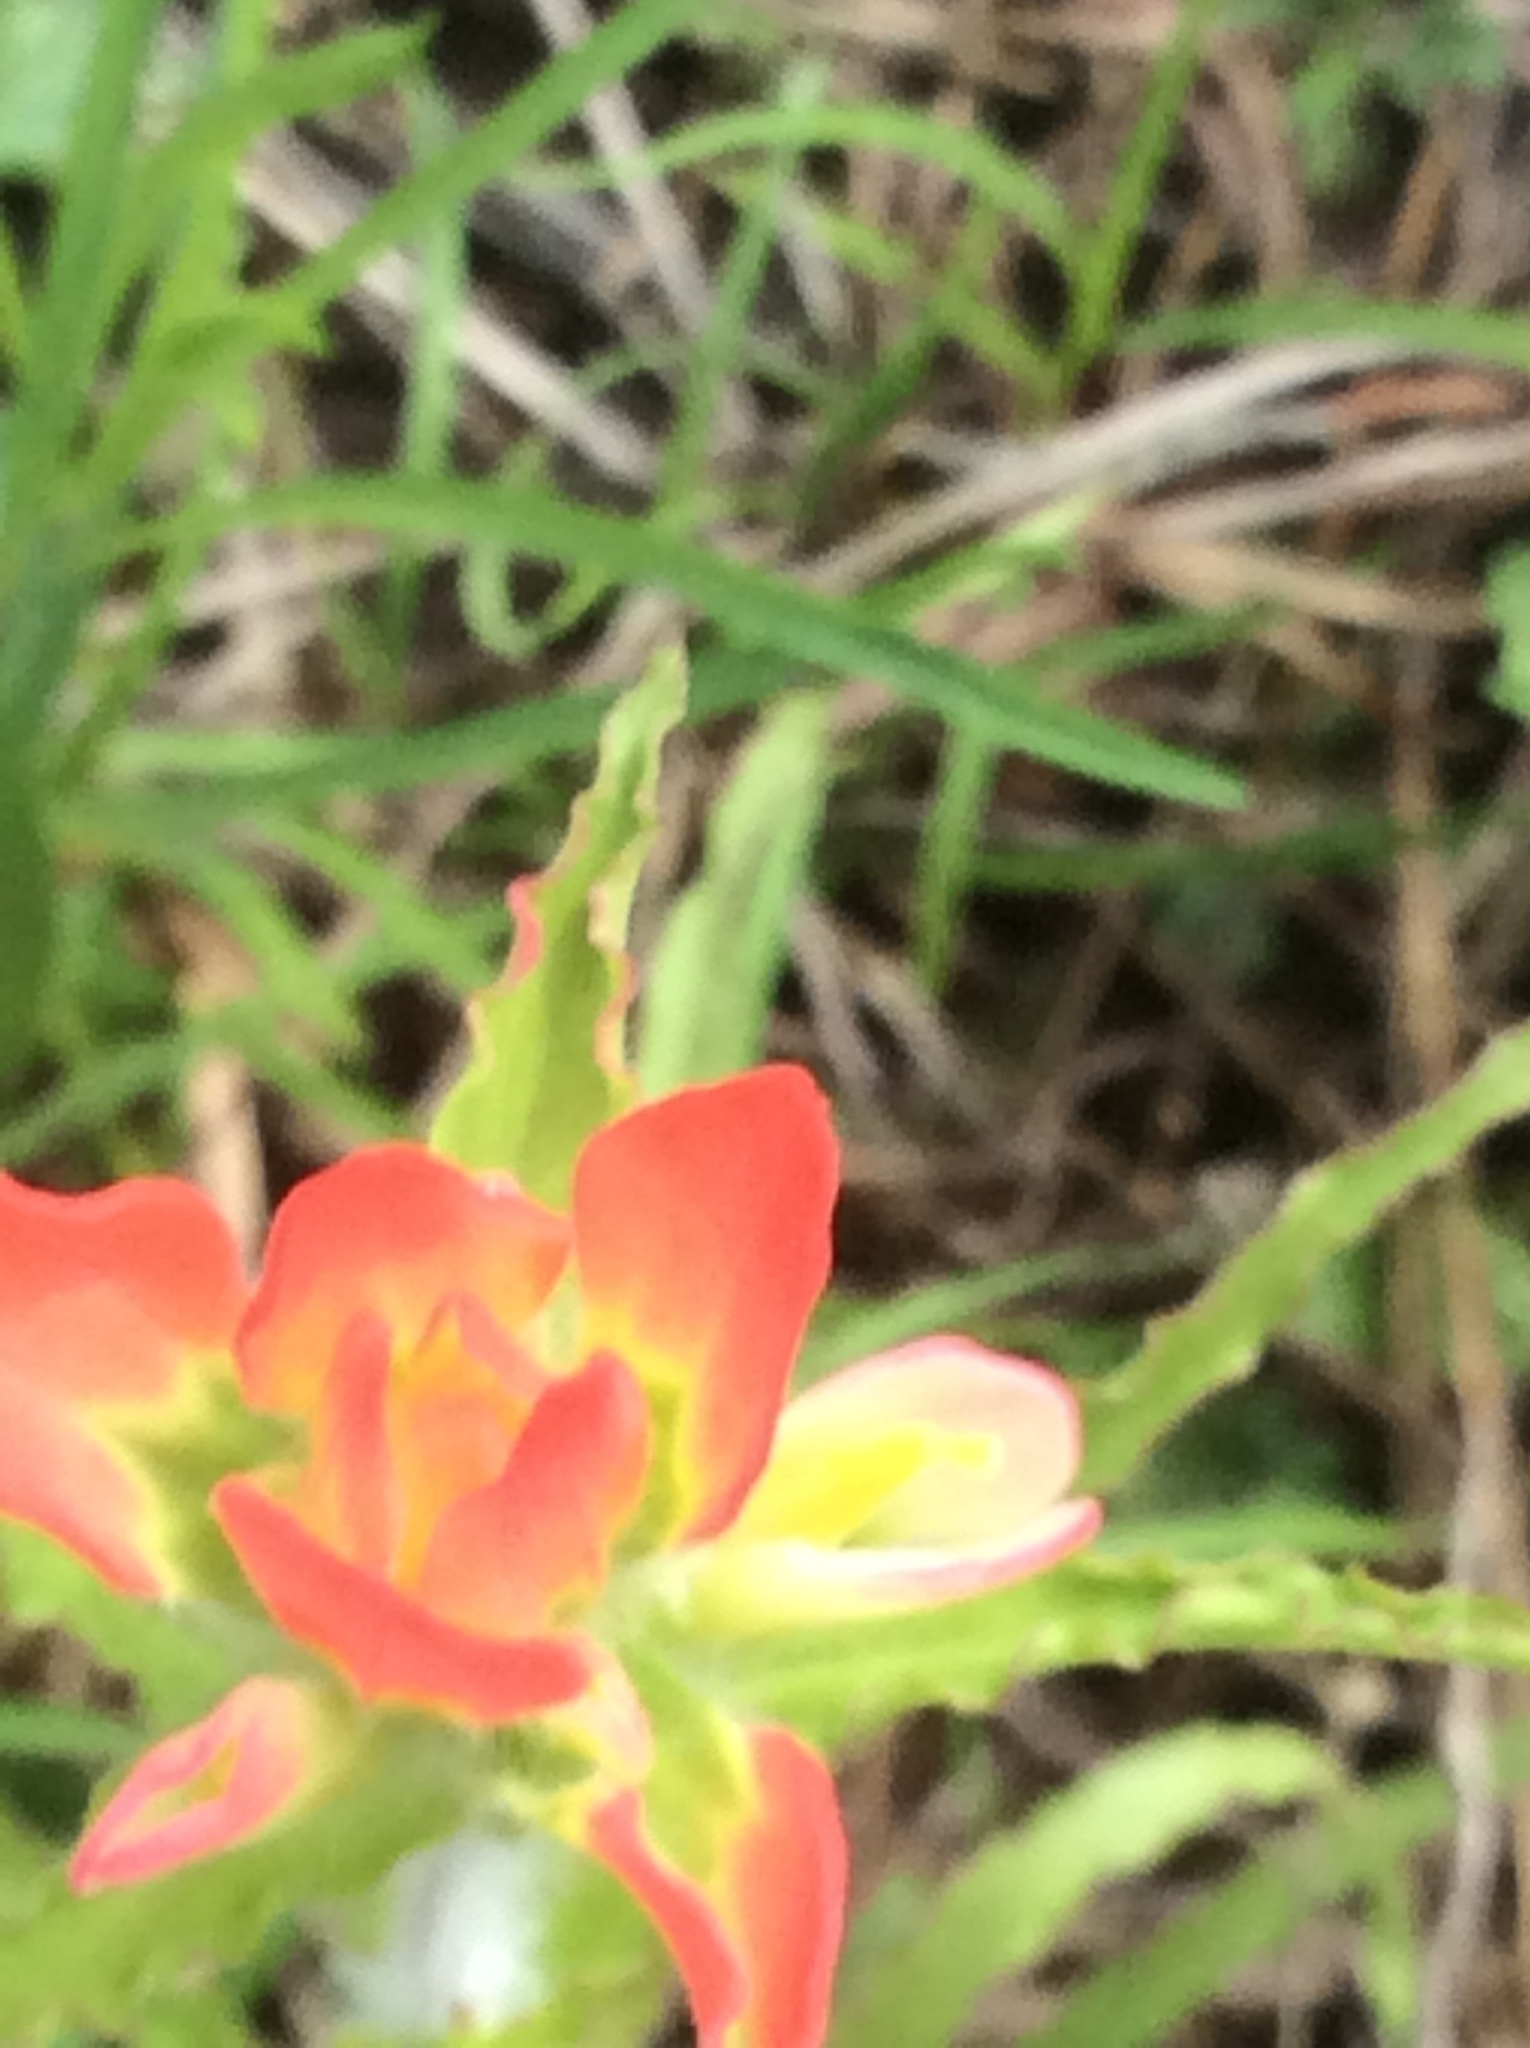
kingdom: Plantae
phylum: Tracheophyta
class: Magnoliopsida
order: Lamiales
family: Orobanchaceae
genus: Castilleja
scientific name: Castilleja indivisa
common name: Texas paintbrush
